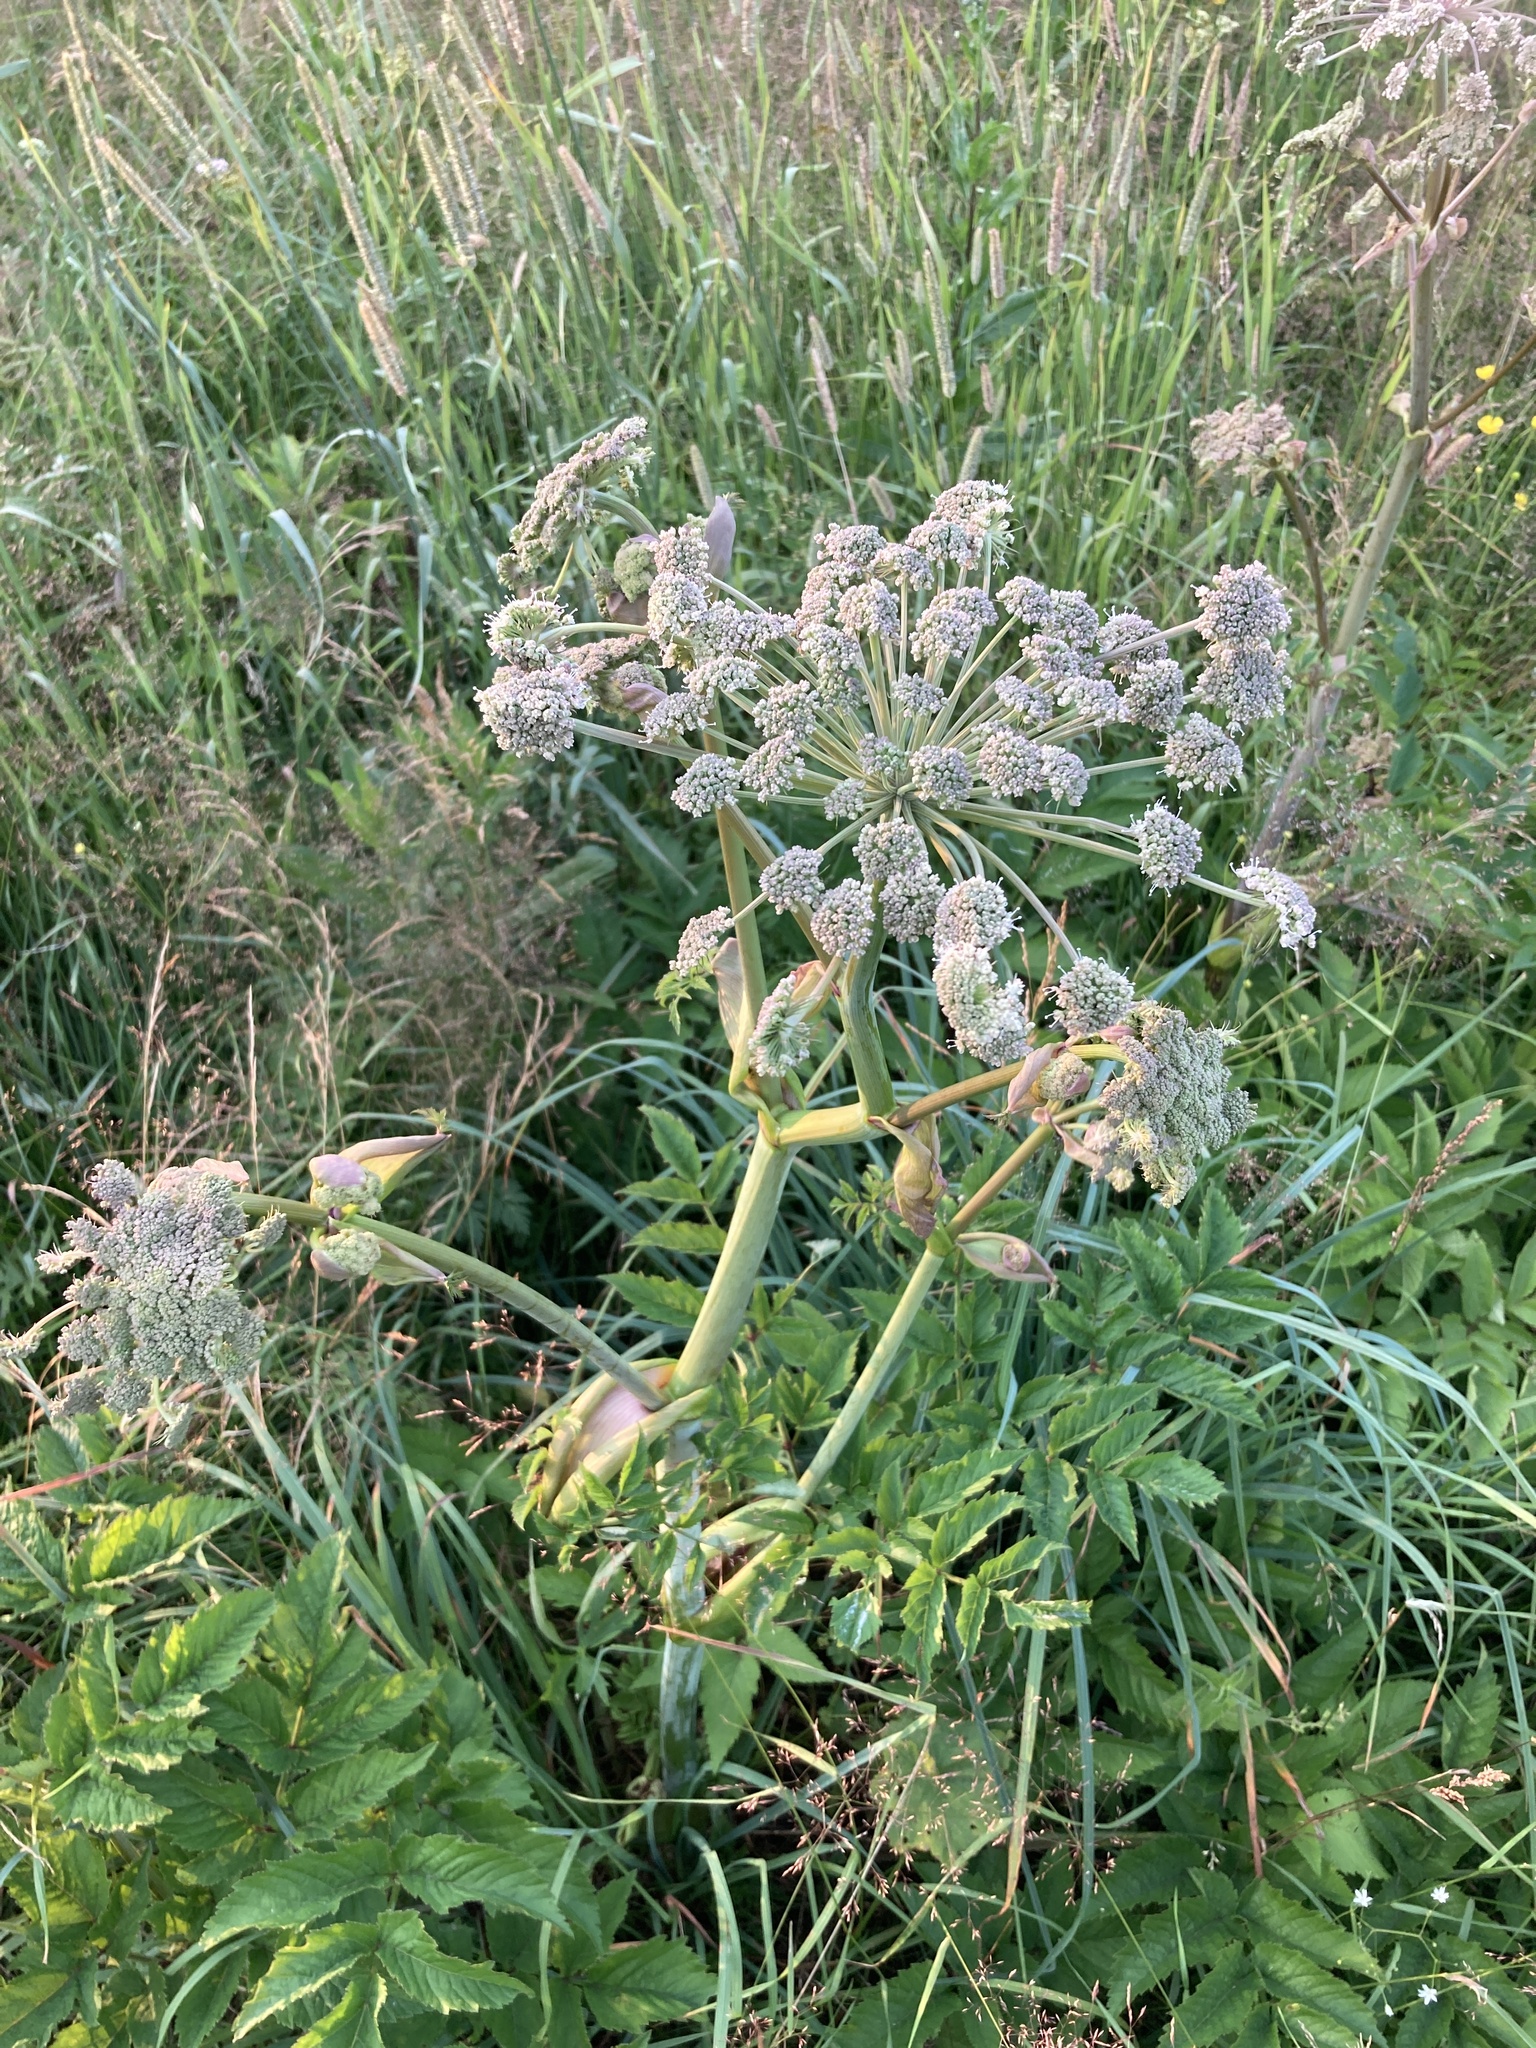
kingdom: Plantae
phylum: Tracheophyta
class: Magnoliopsida
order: Apiales
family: Apiaceae
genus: Angelica
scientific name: Angelica sylvestris
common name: Wild angelica
